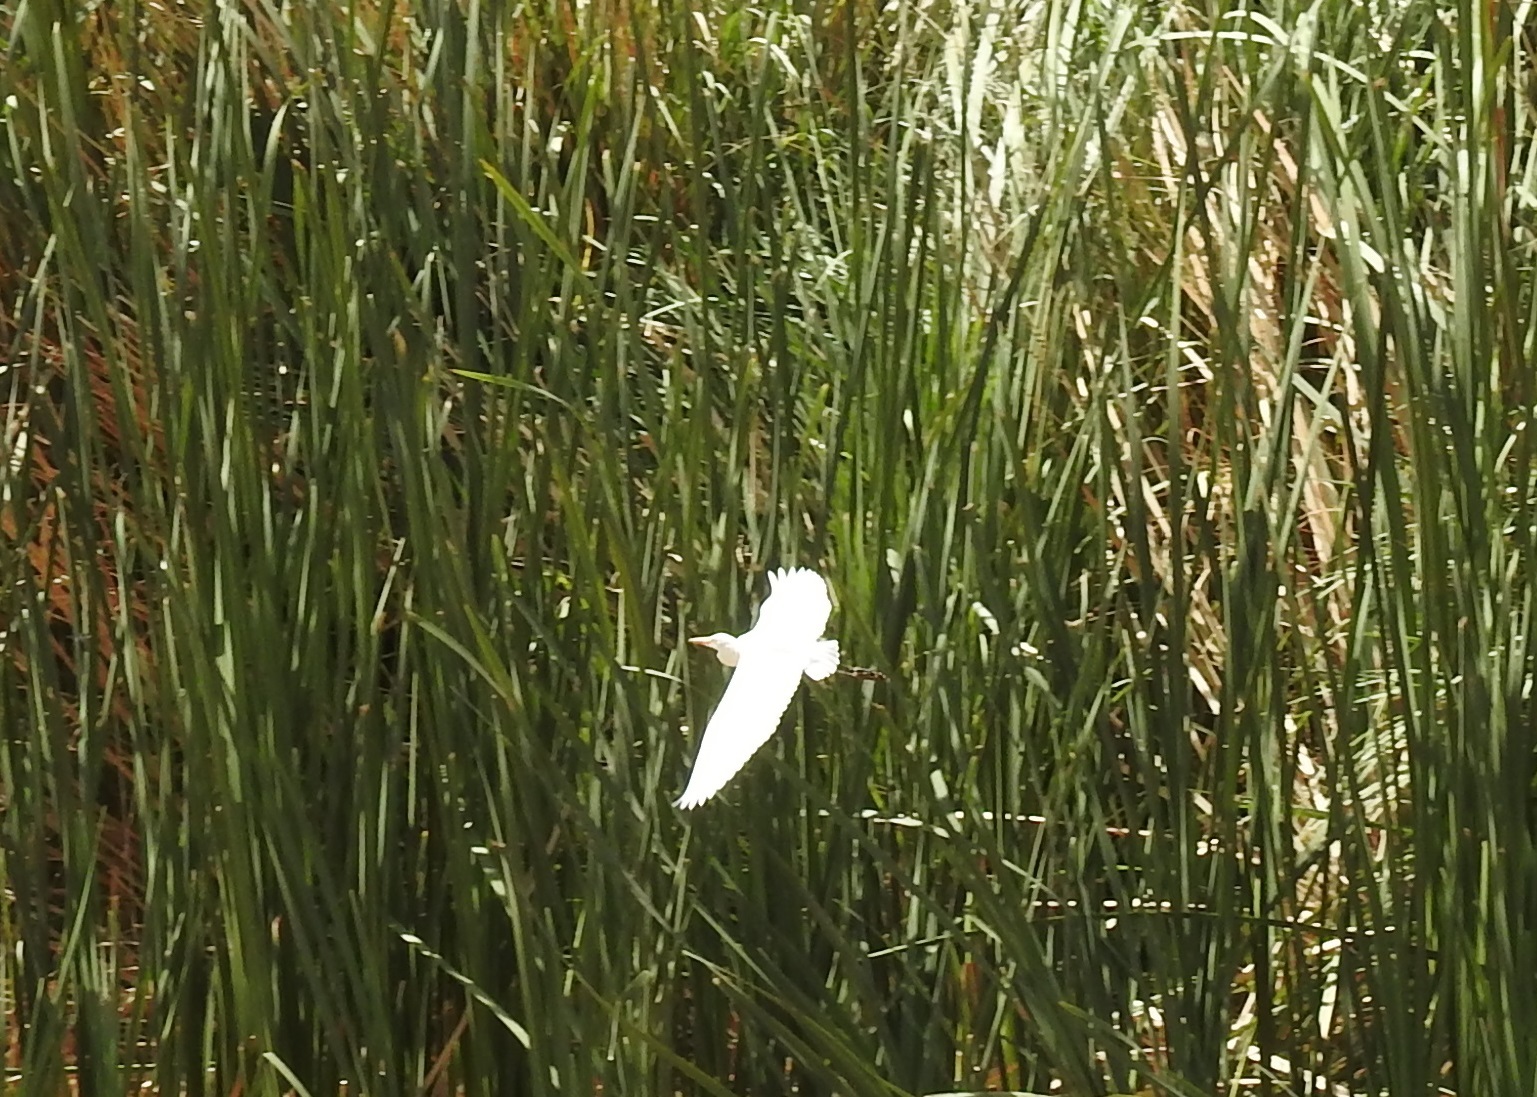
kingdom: Animalia
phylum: Chordata
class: Aves
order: Pelecaniformes
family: Ardeidae
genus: Bubulcus
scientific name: Bubulcus ibis
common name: Cattle egret
